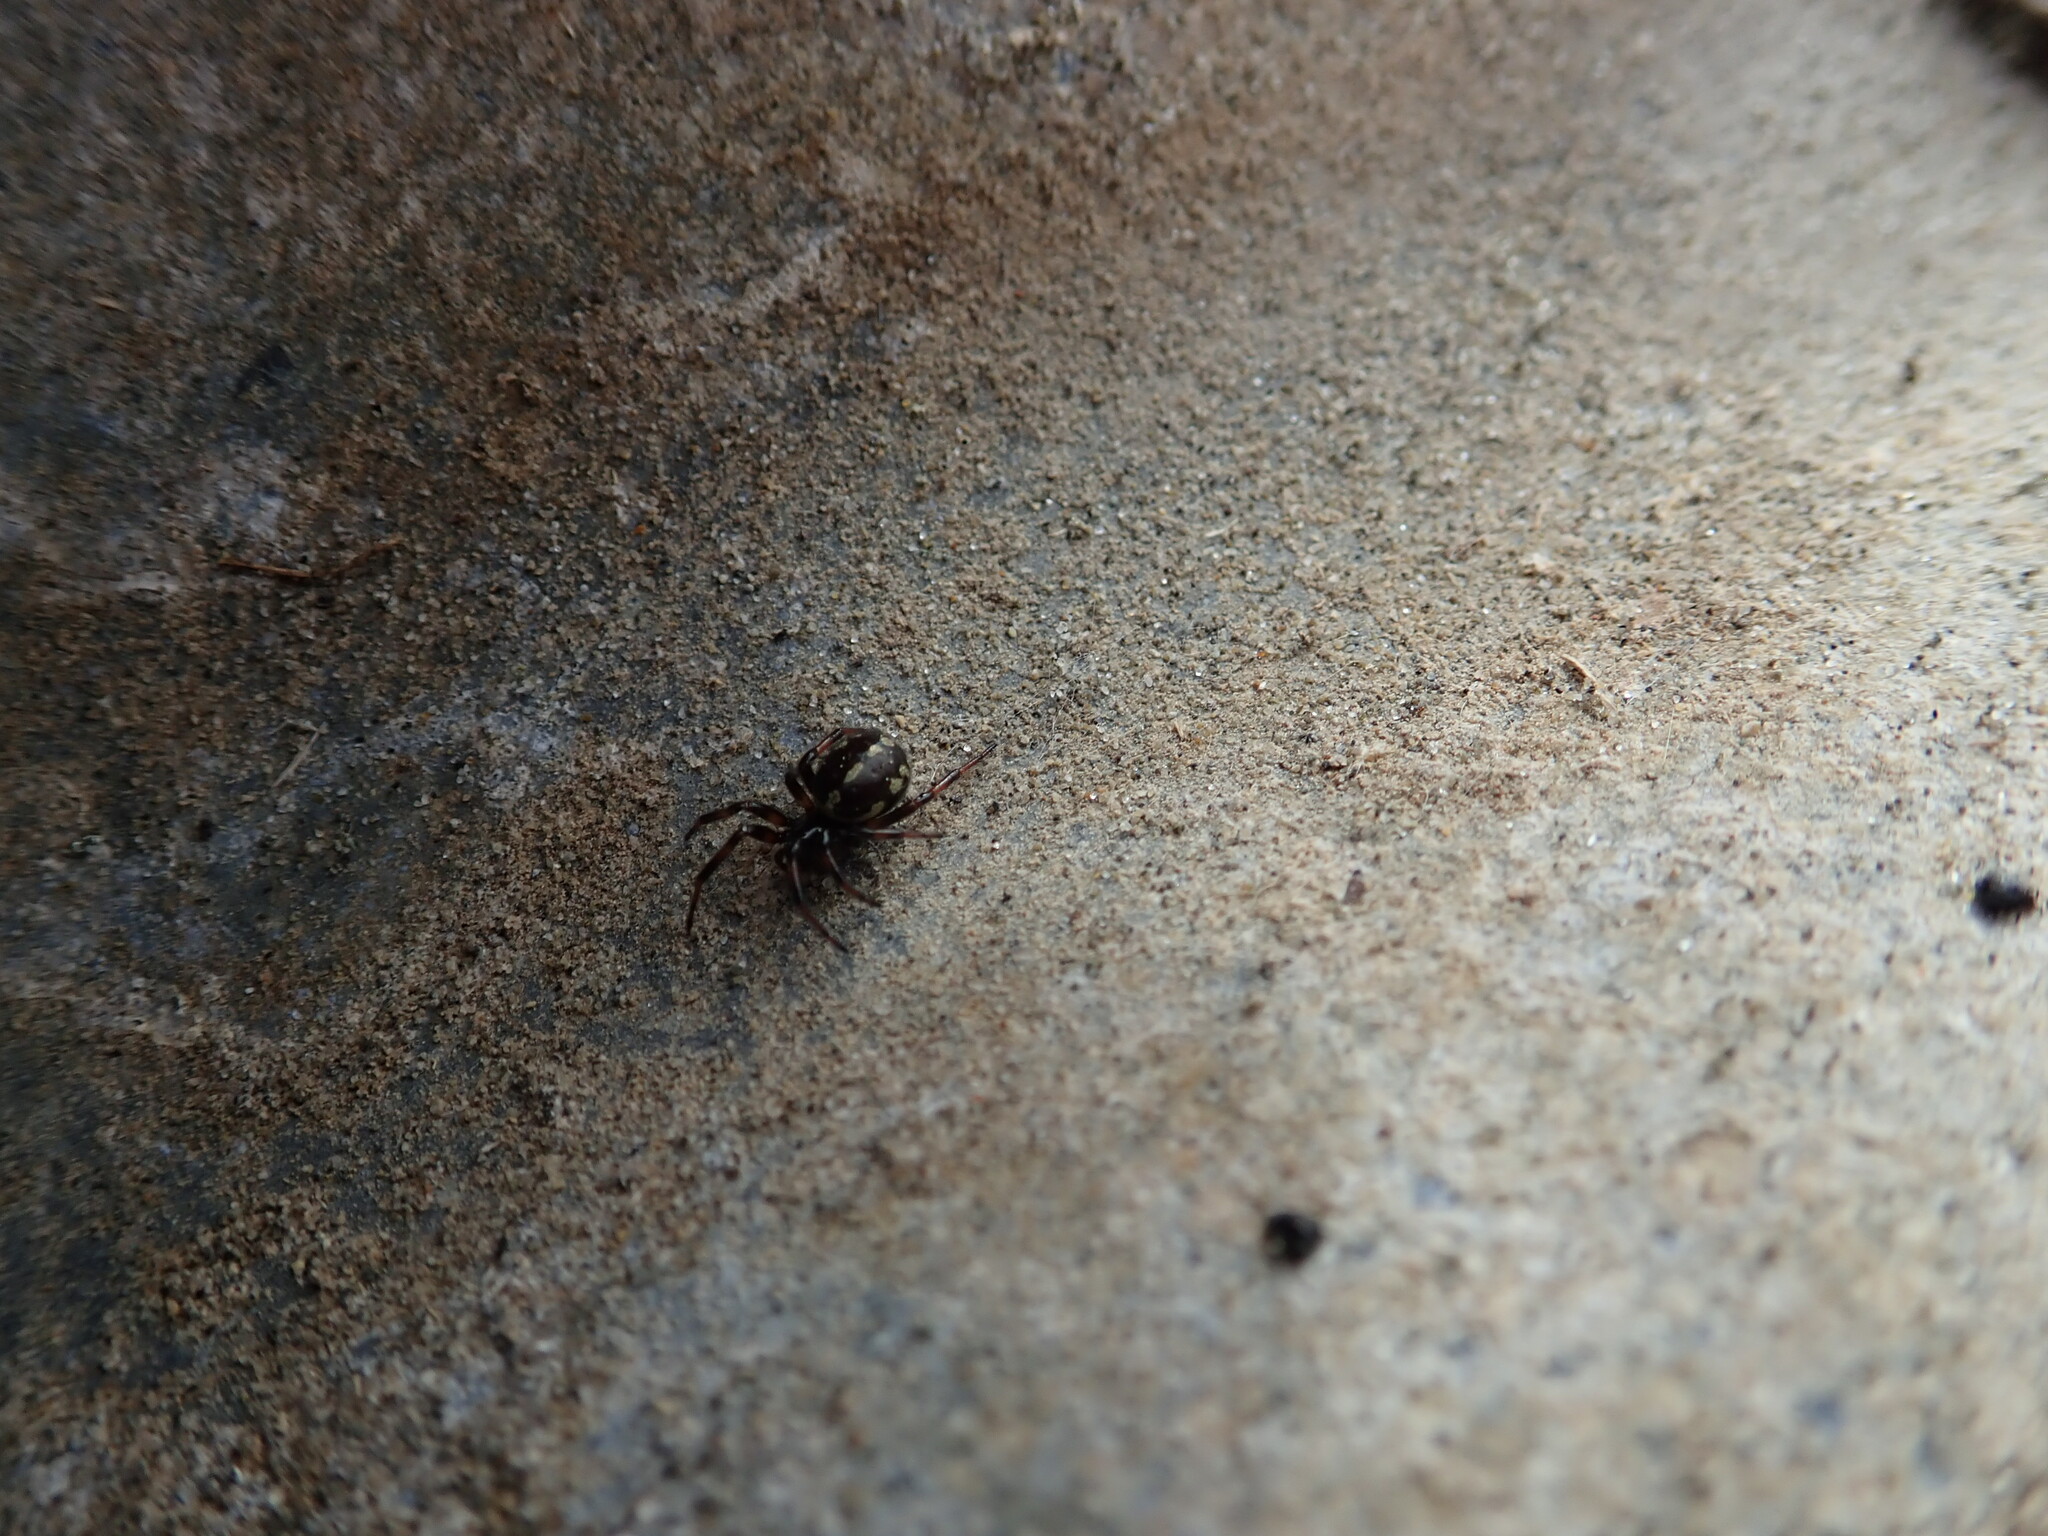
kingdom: Animalia
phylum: Arthropoda
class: Arachnida
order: Araneae
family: Theridiidae
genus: Steatoda
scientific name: Steatoda lepida
